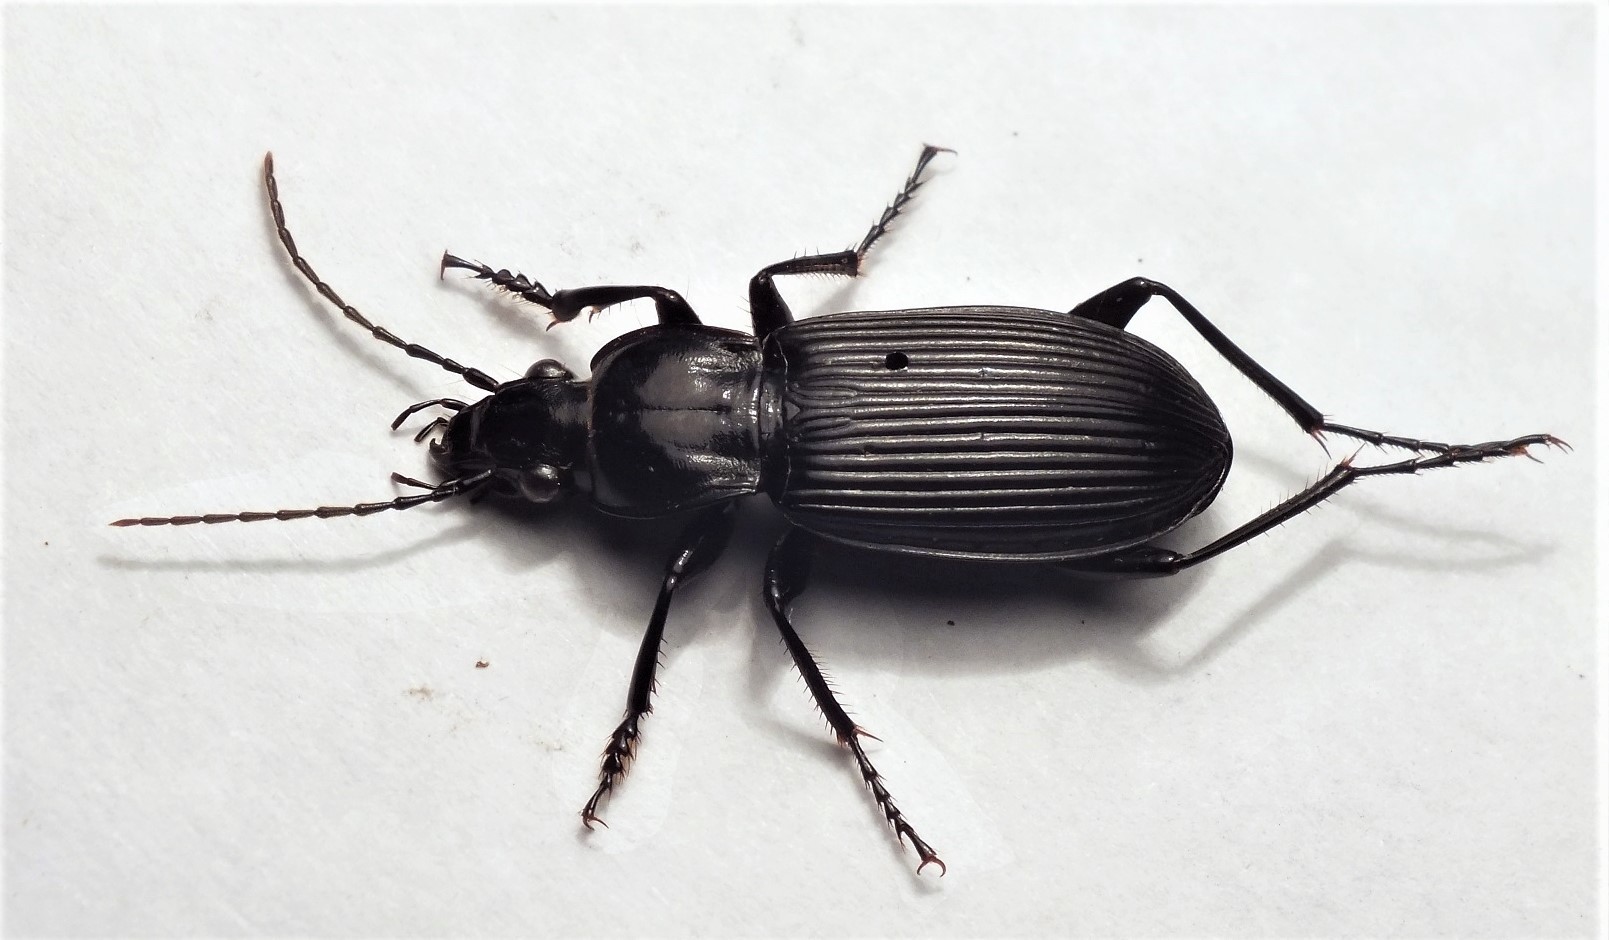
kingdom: Animalia
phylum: Arthropoda
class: Insecta
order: Coleoptera
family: Carabidae
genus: Pterostichus
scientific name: Pterostichus niger
